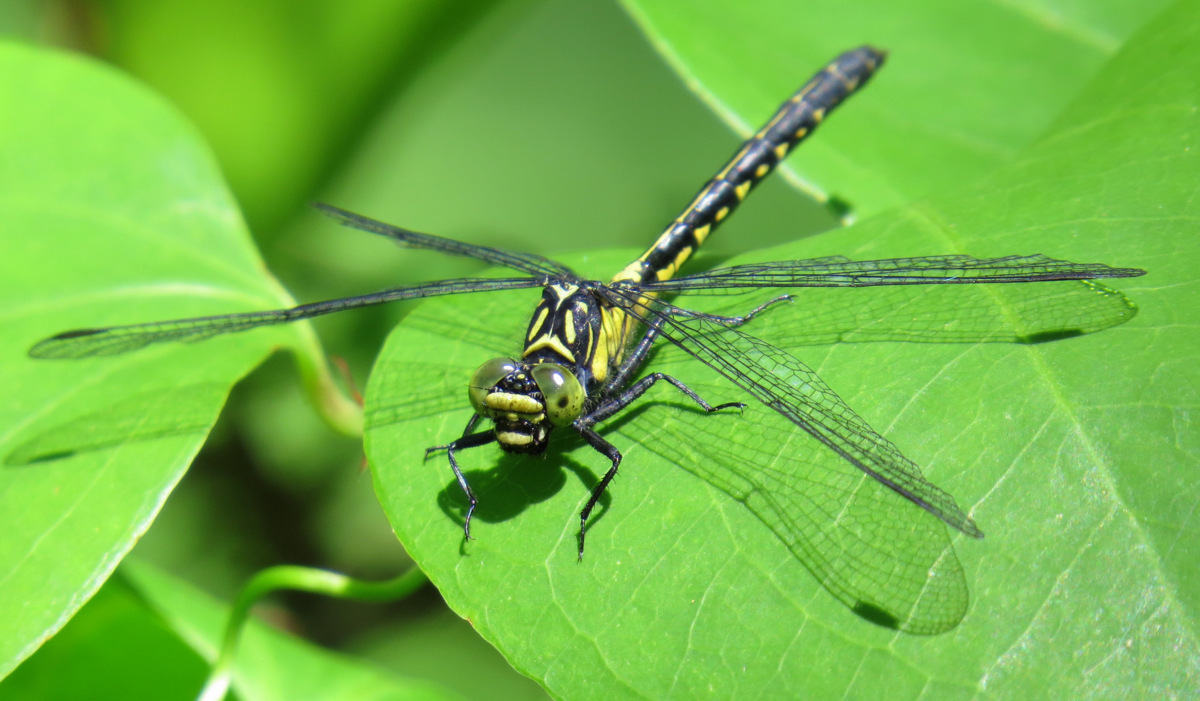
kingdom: Animalia
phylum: Arthropoda
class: Insecta
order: Odonata
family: Gomphidae
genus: Lanthus
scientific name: Lanthus vernalis
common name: Southern pygmy clubtail
